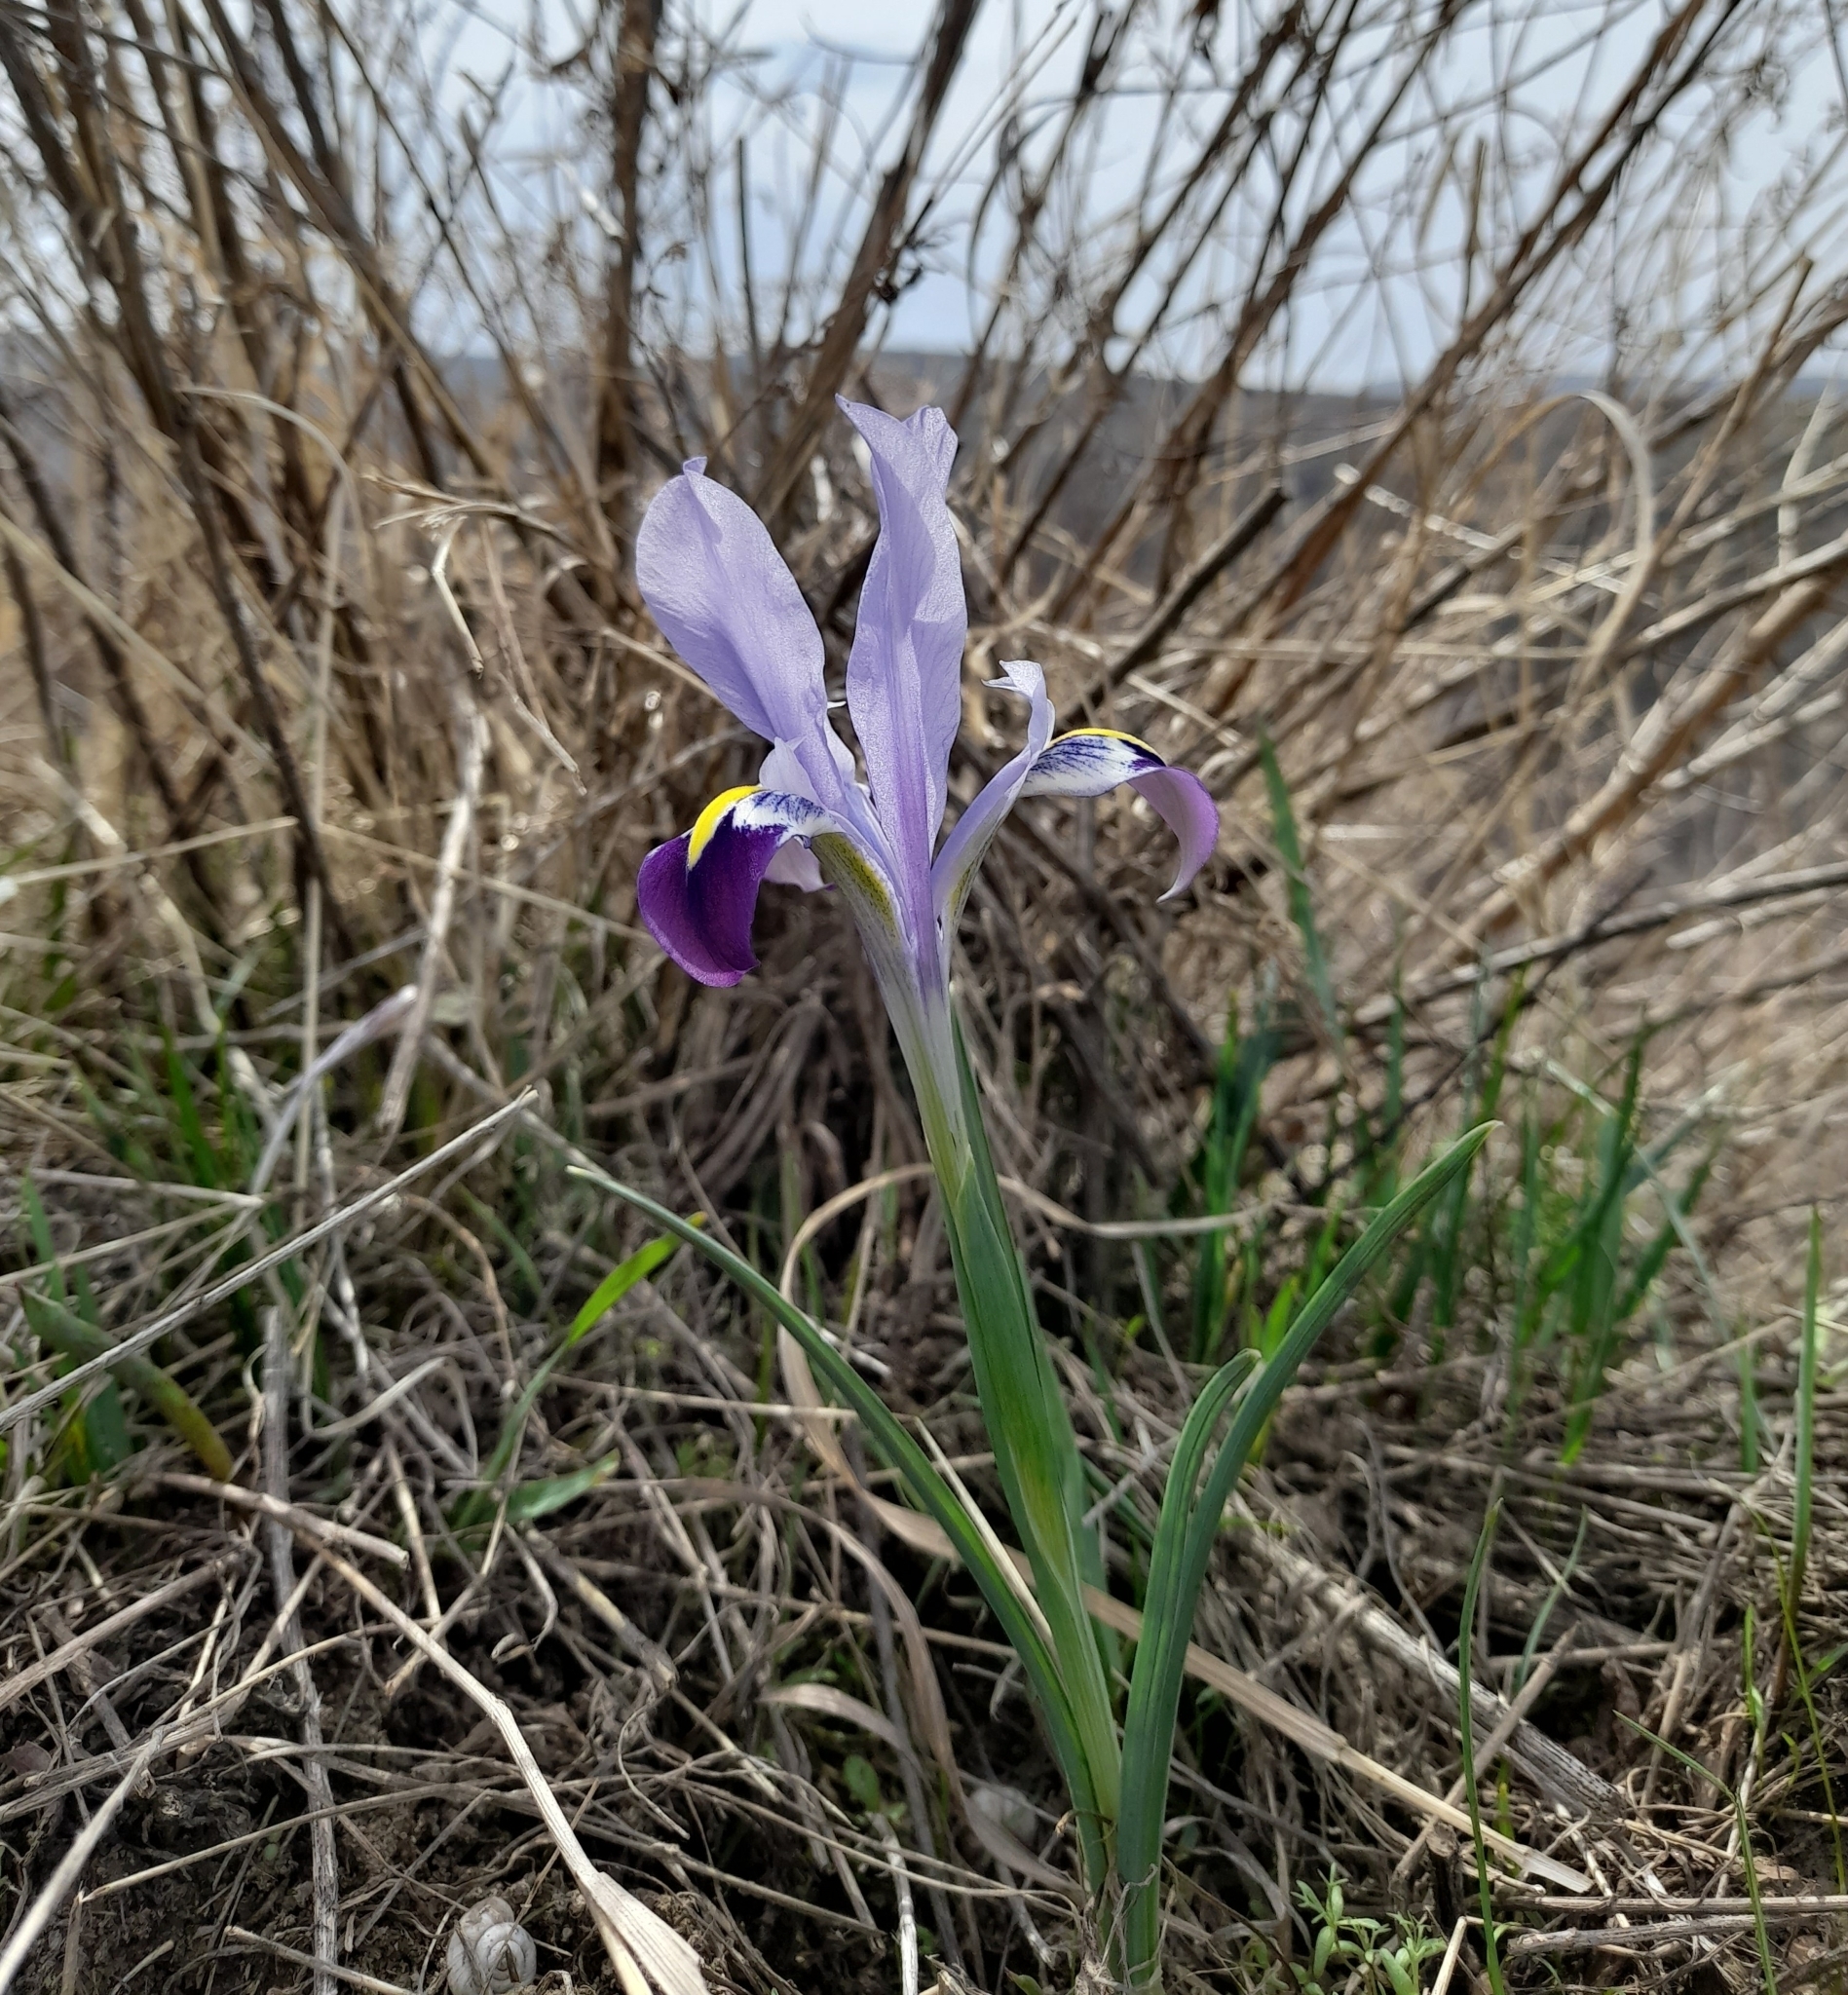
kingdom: Plantae
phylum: Tracheophyta
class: Liliopsida
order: Asparagales
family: Iridaceae
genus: Iris
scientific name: Iris kolpakowskiana
